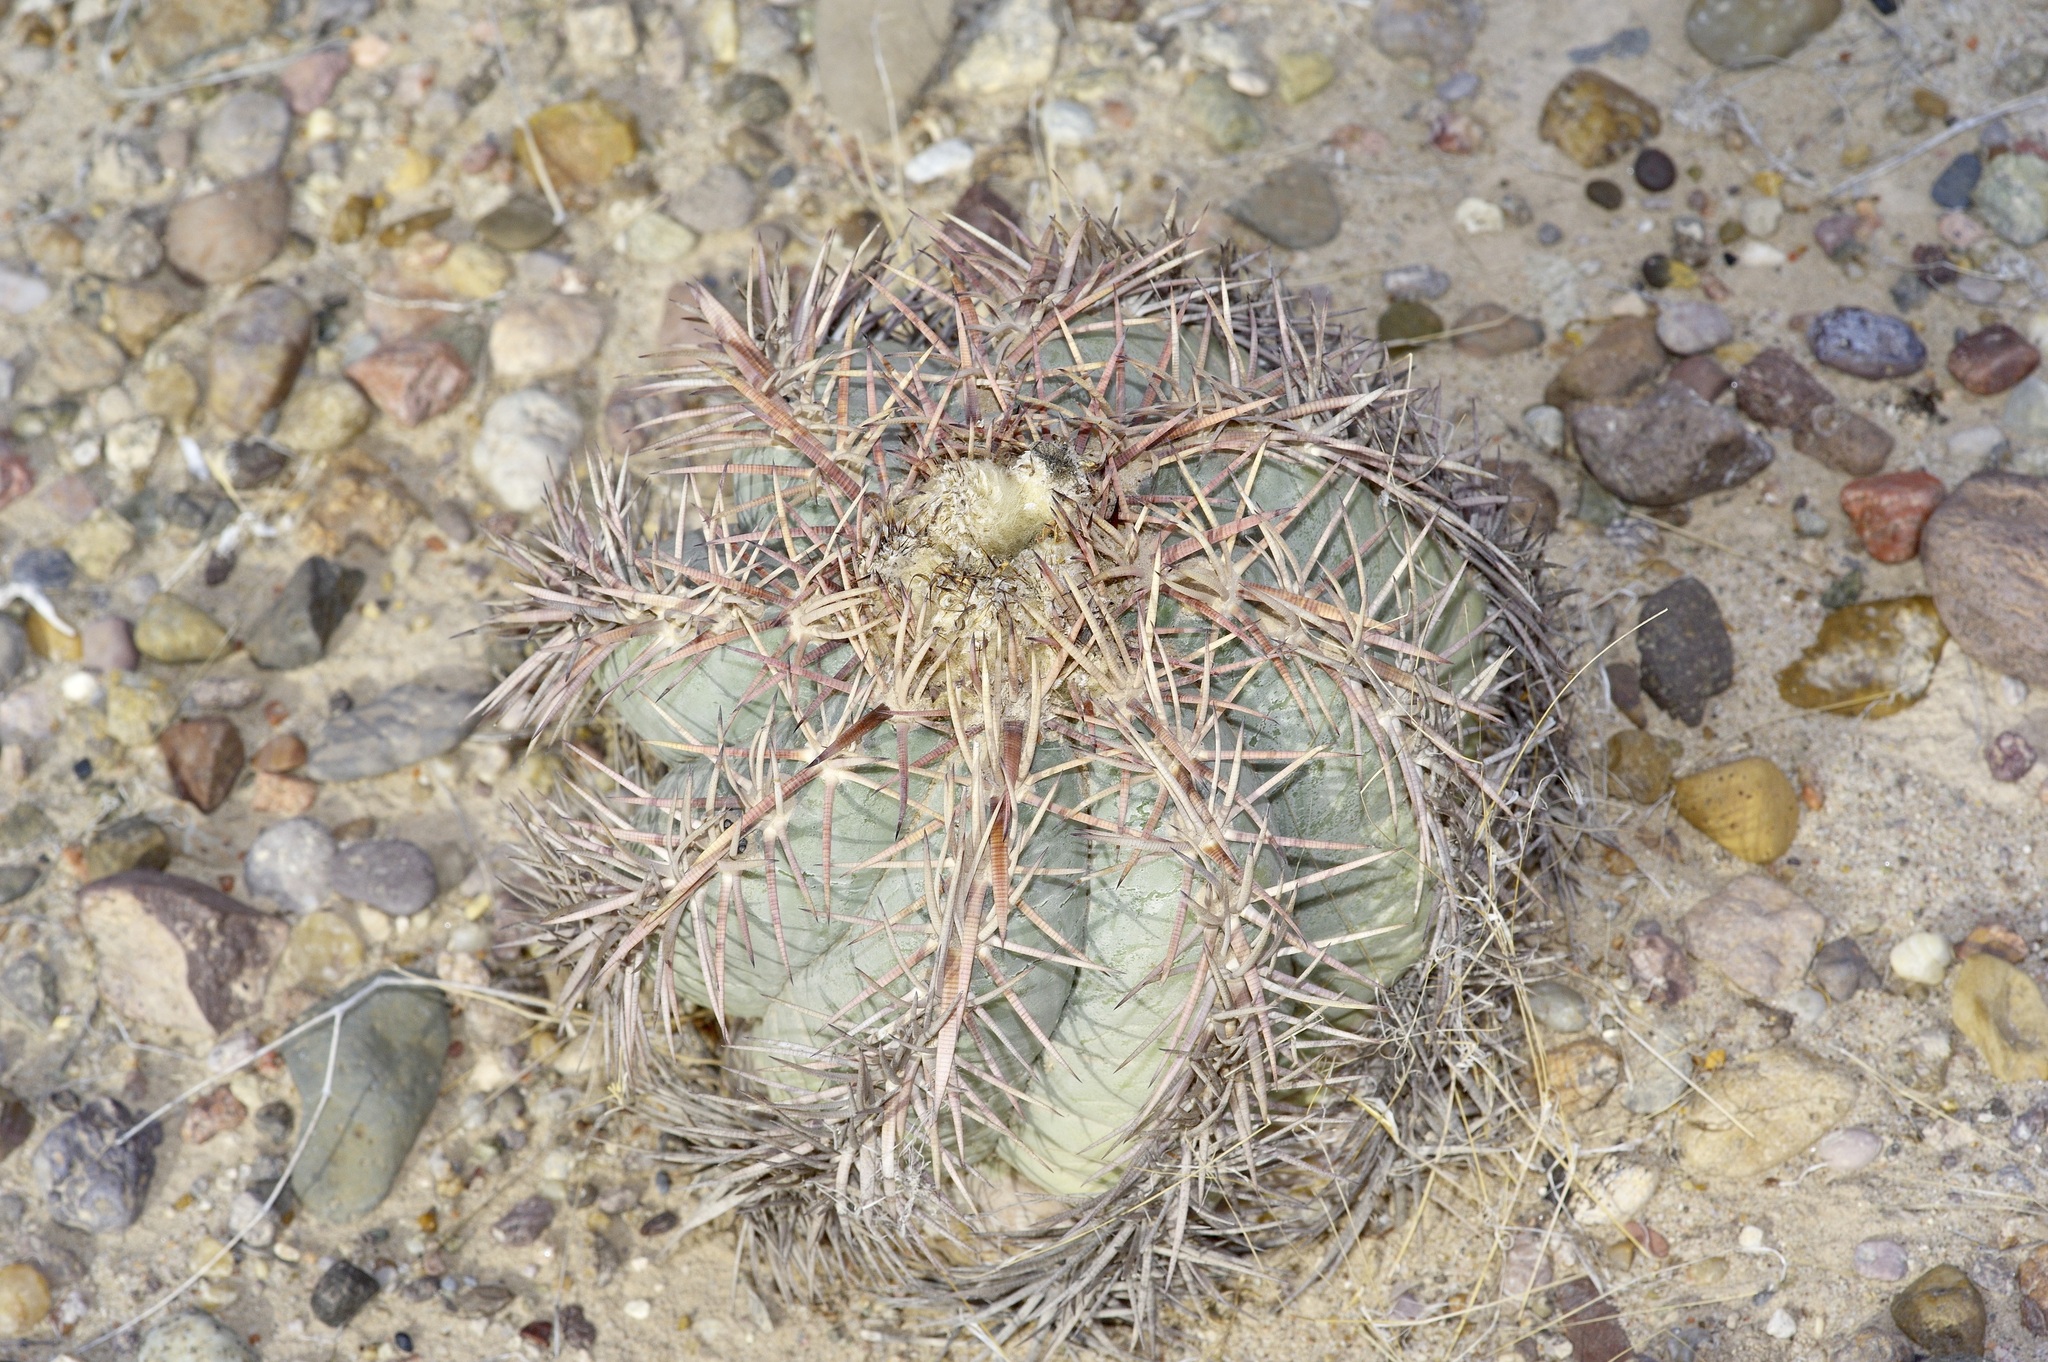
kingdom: Plantae
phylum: Tracheophyta
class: Magnoliopsida
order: Caryophyllales
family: Cactaceae
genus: Echinocactus
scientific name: Echinocactus horizonthalonius
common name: Devilshead
